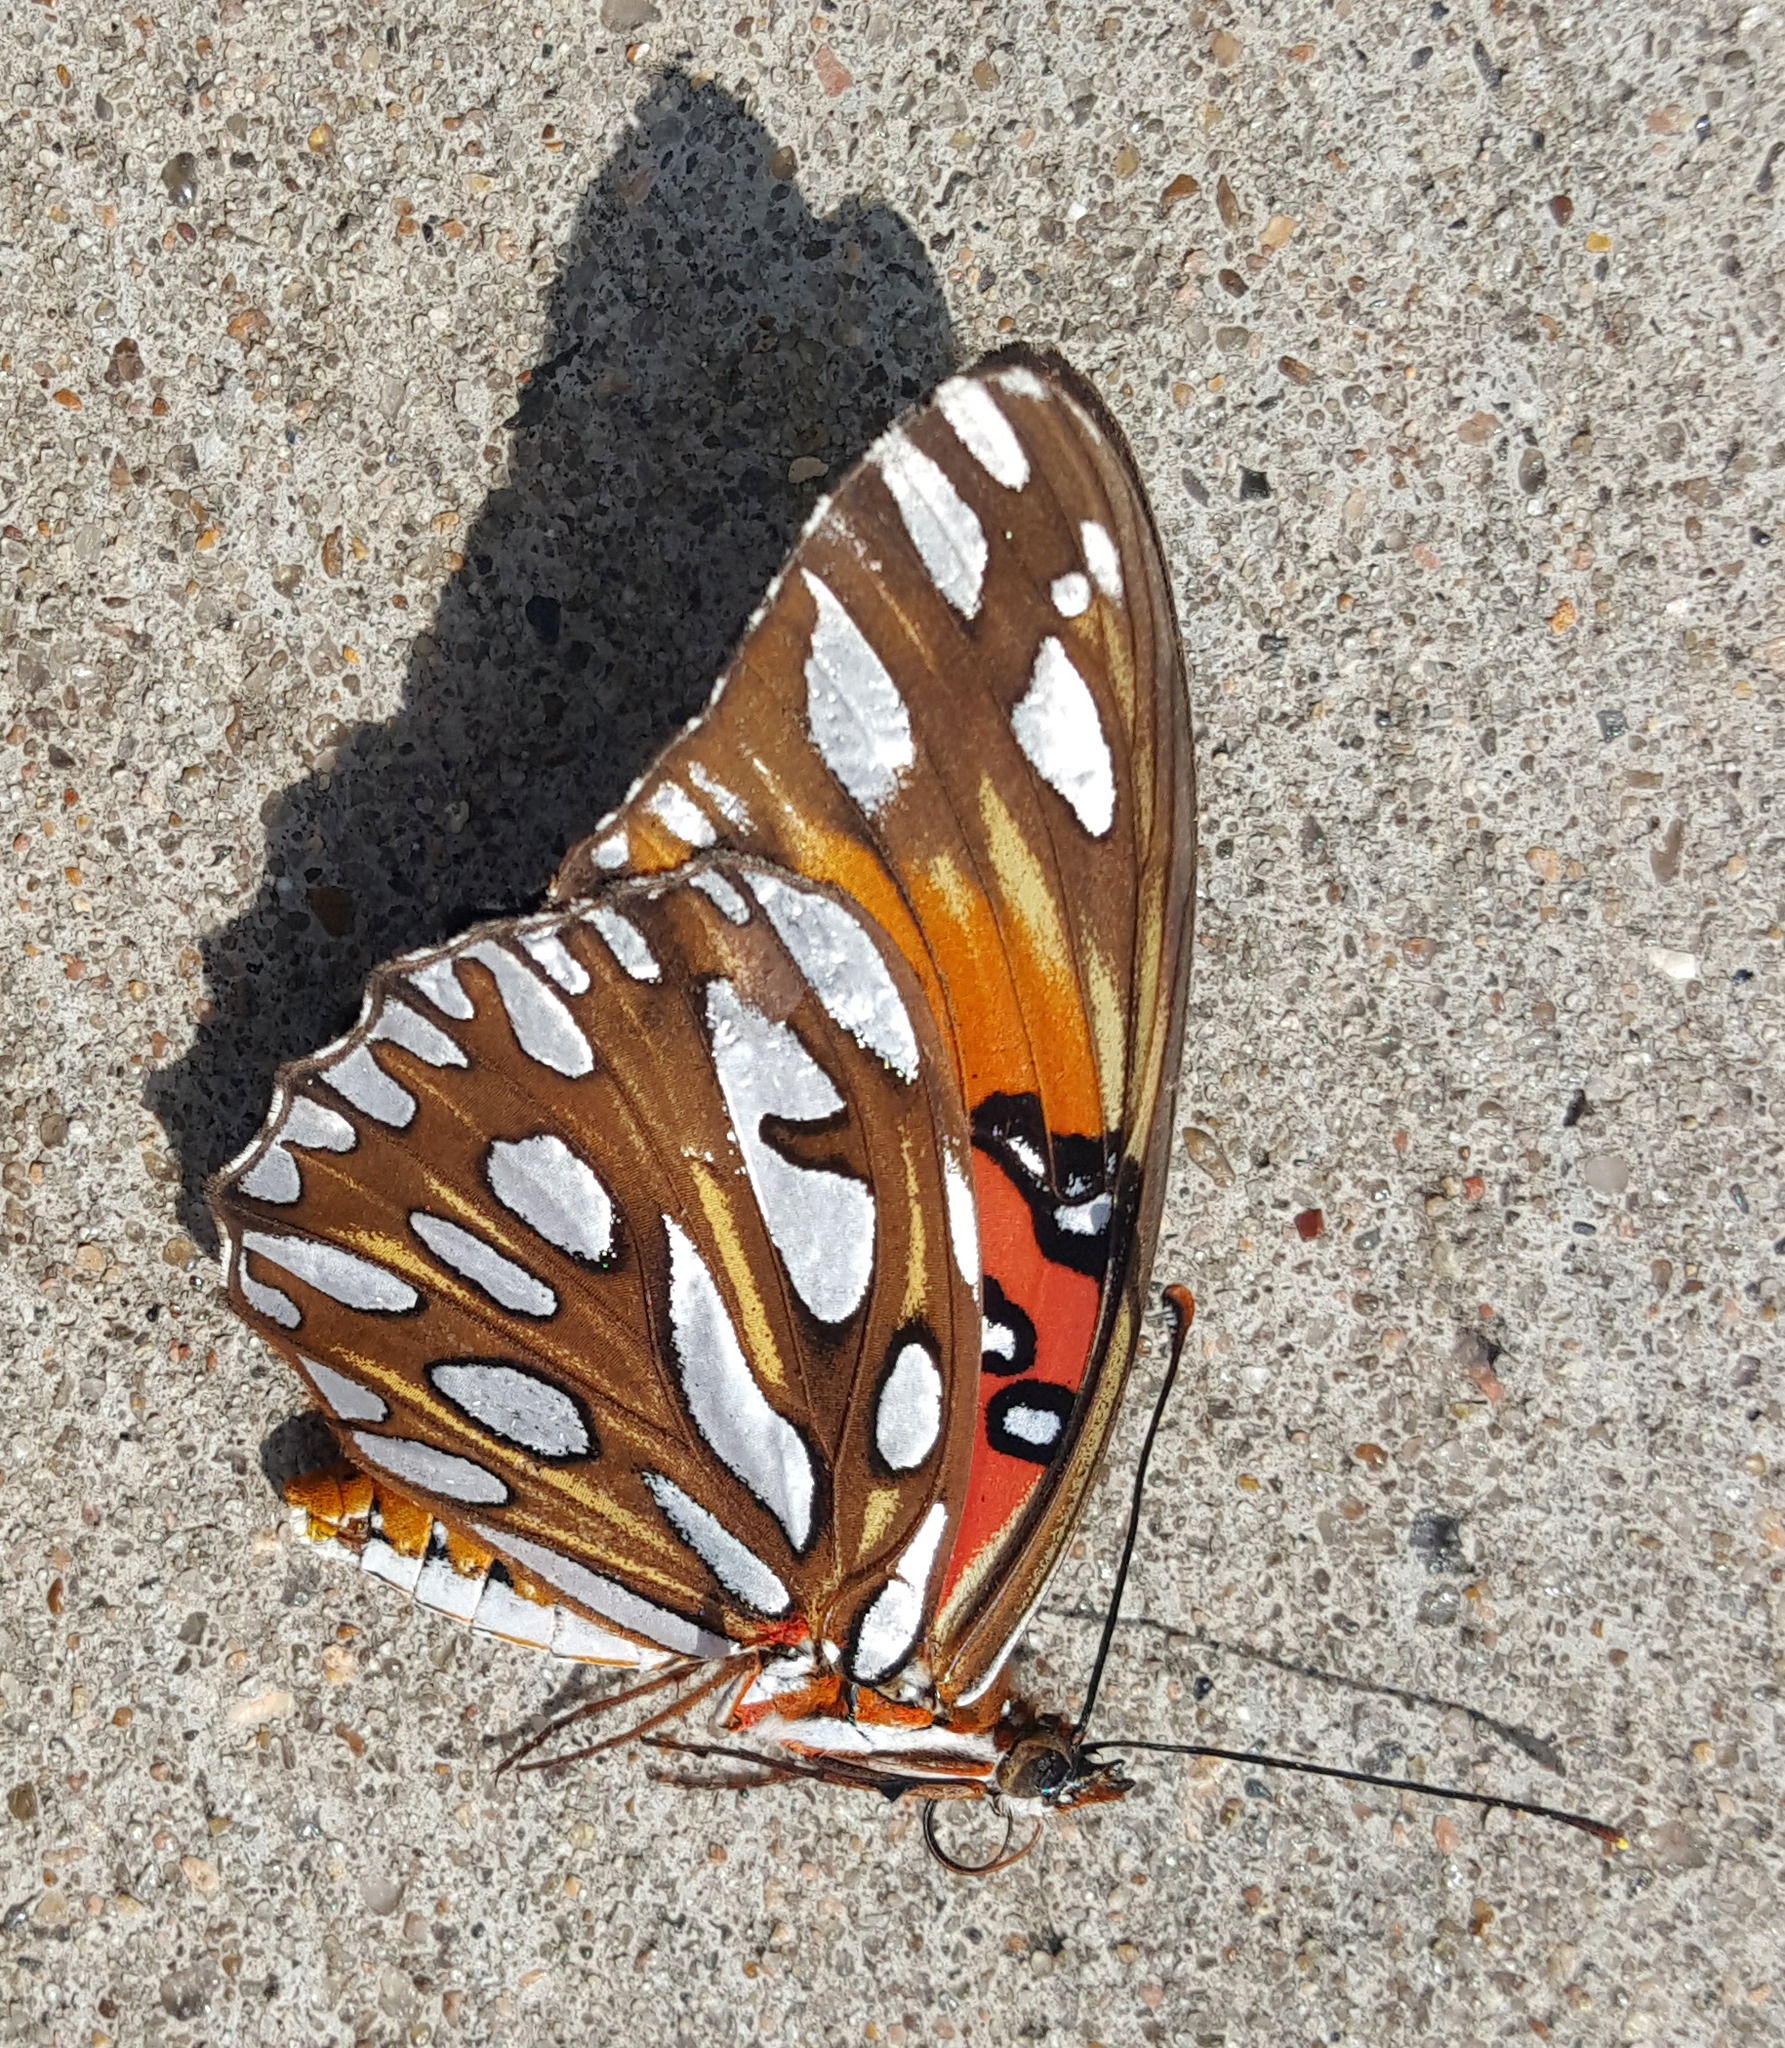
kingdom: Animalia
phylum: Arthropoda
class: Insecta
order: Lepidoptera
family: Nymphalidae
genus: Dione
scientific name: Dione vanillae
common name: Gulf fritillary
